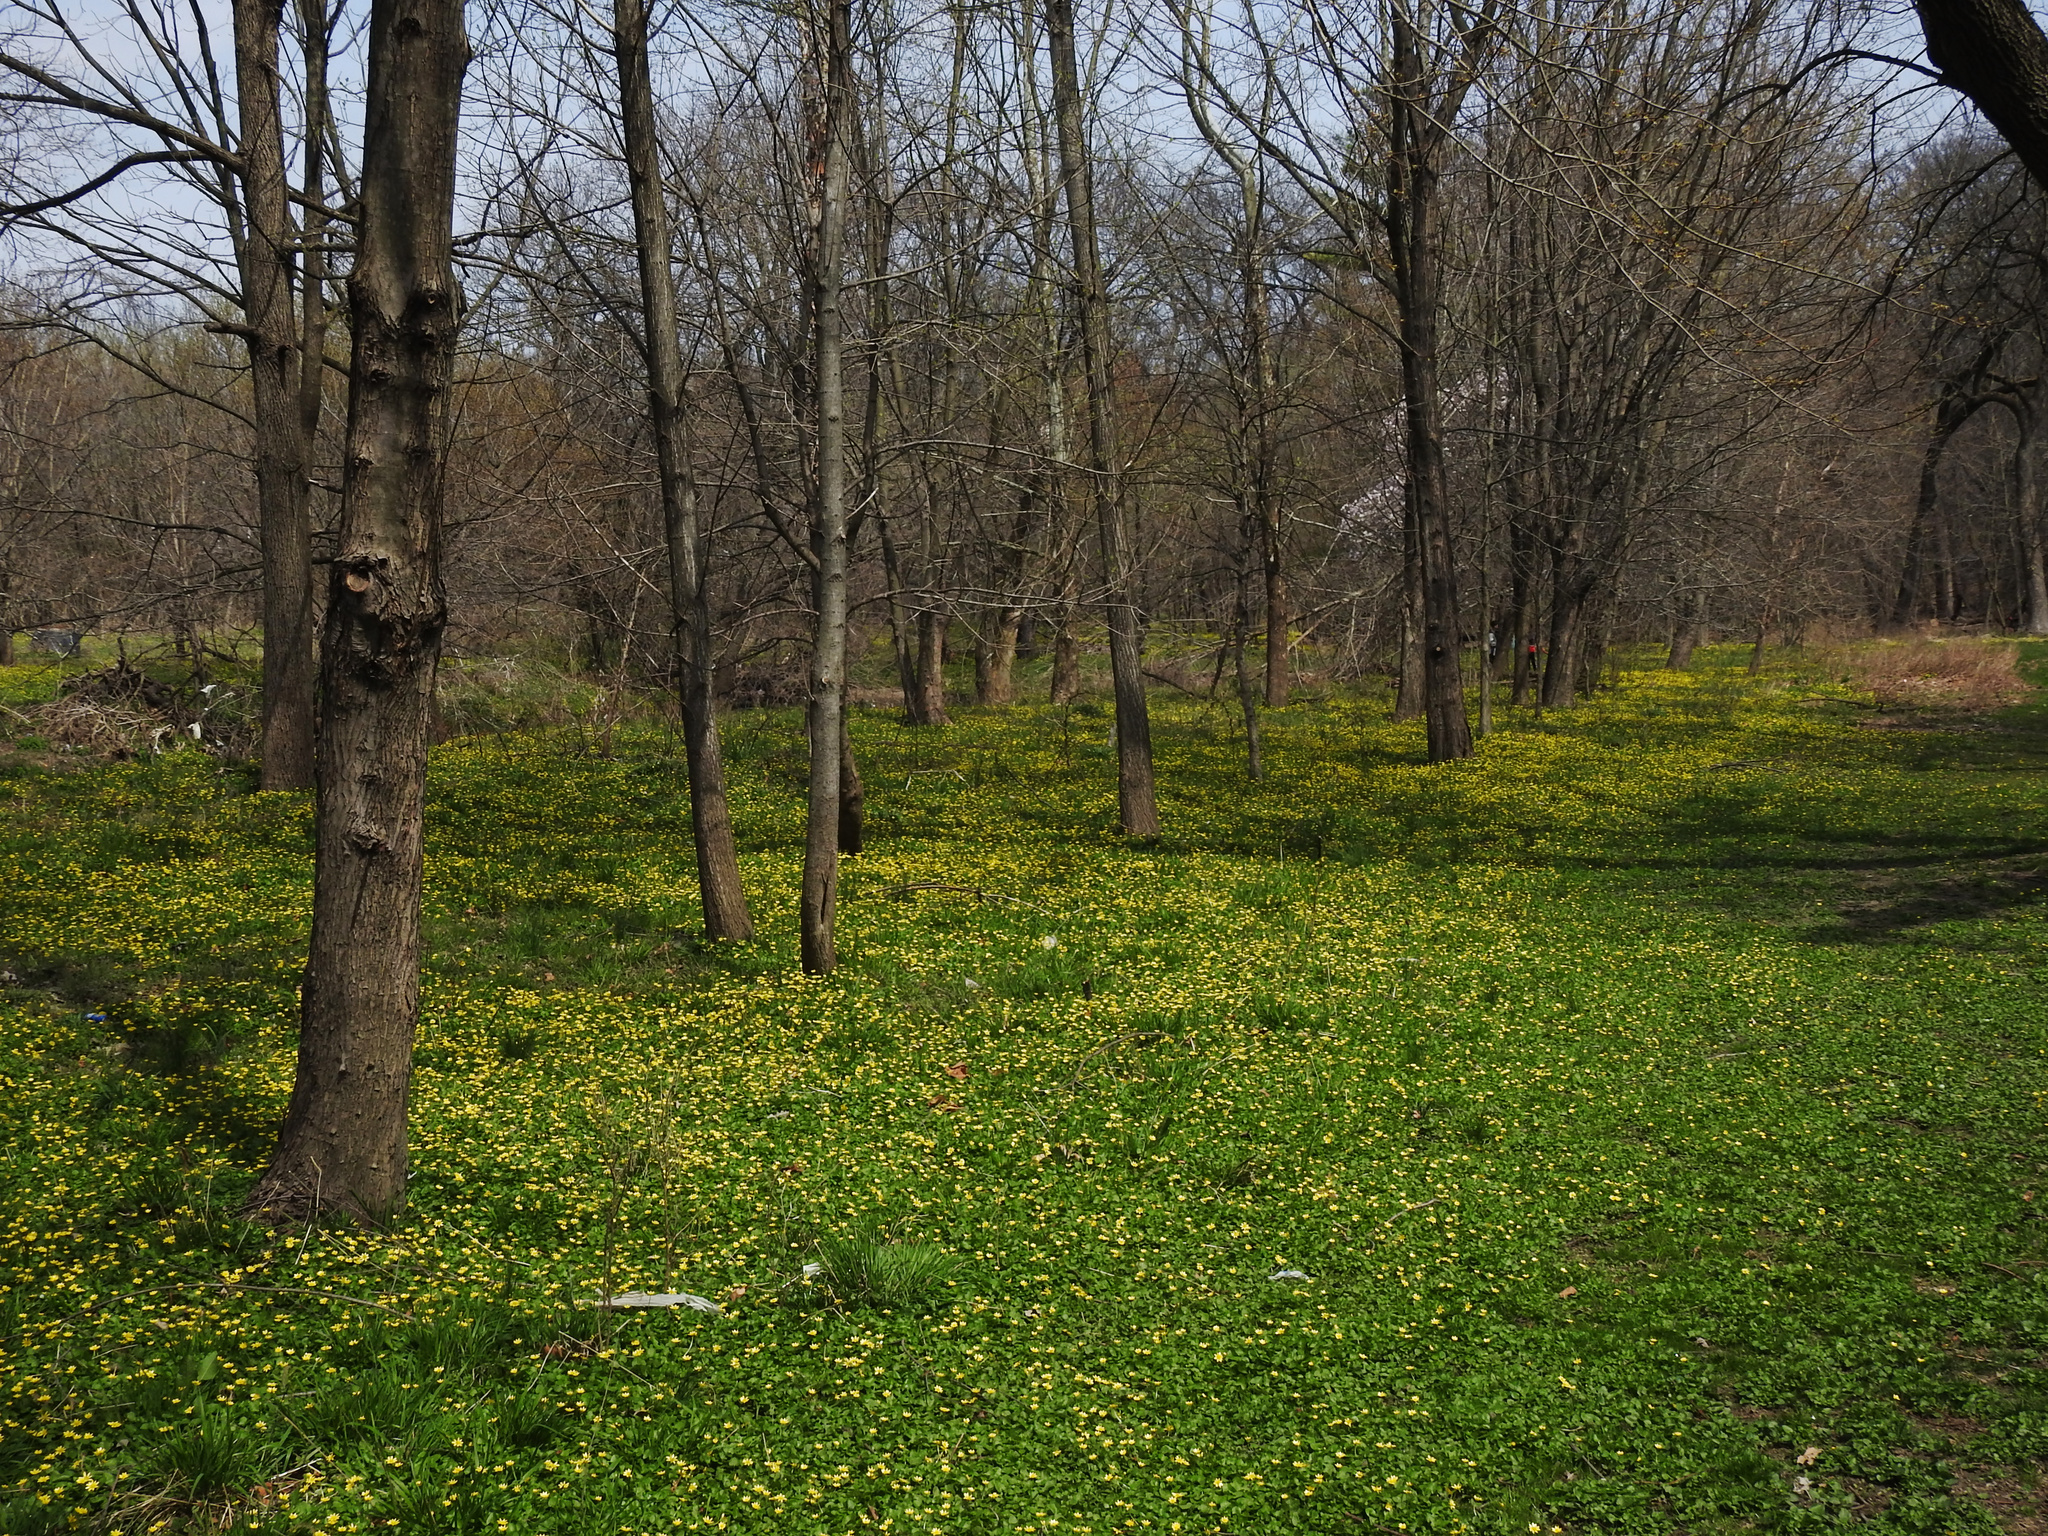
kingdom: Plantae
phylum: Tracheophyta
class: Magnoliopsida
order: Ranunculales
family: Ranunculaceae
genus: Ficaria
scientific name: Ficaria verna
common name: Lesser celandine
